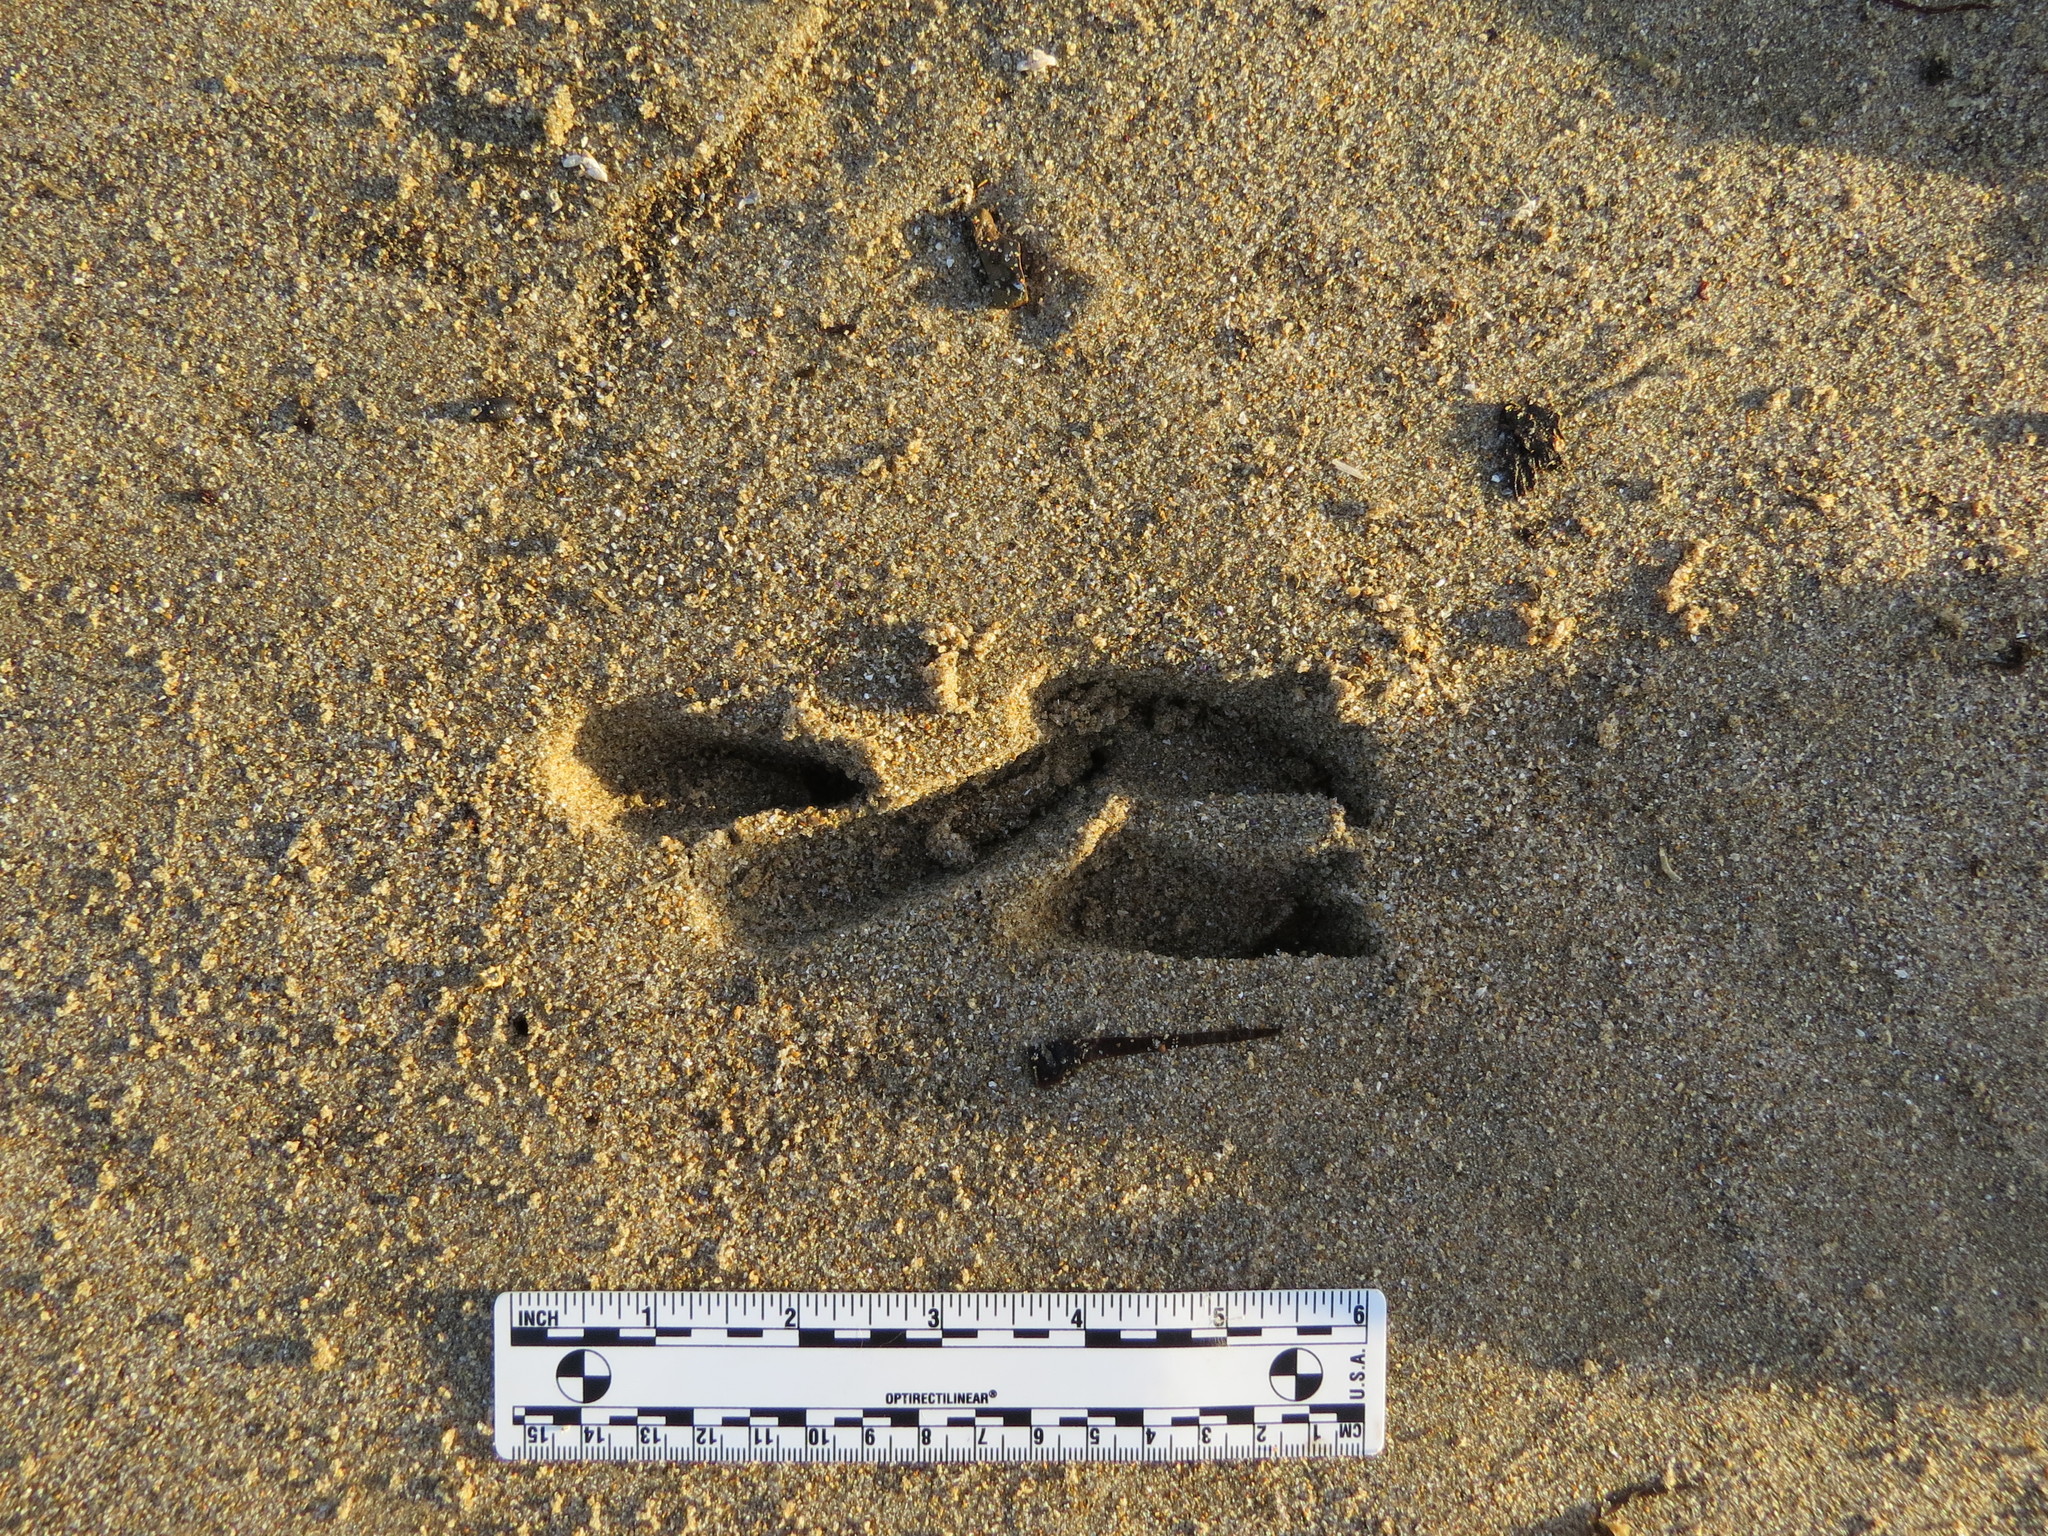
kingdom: Animalia
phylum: Chordata
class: Mammalia
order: Artiodactyla
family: Cervidae
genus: Odocoileus
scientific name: Odocoileus hemionus
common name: Mule deer
